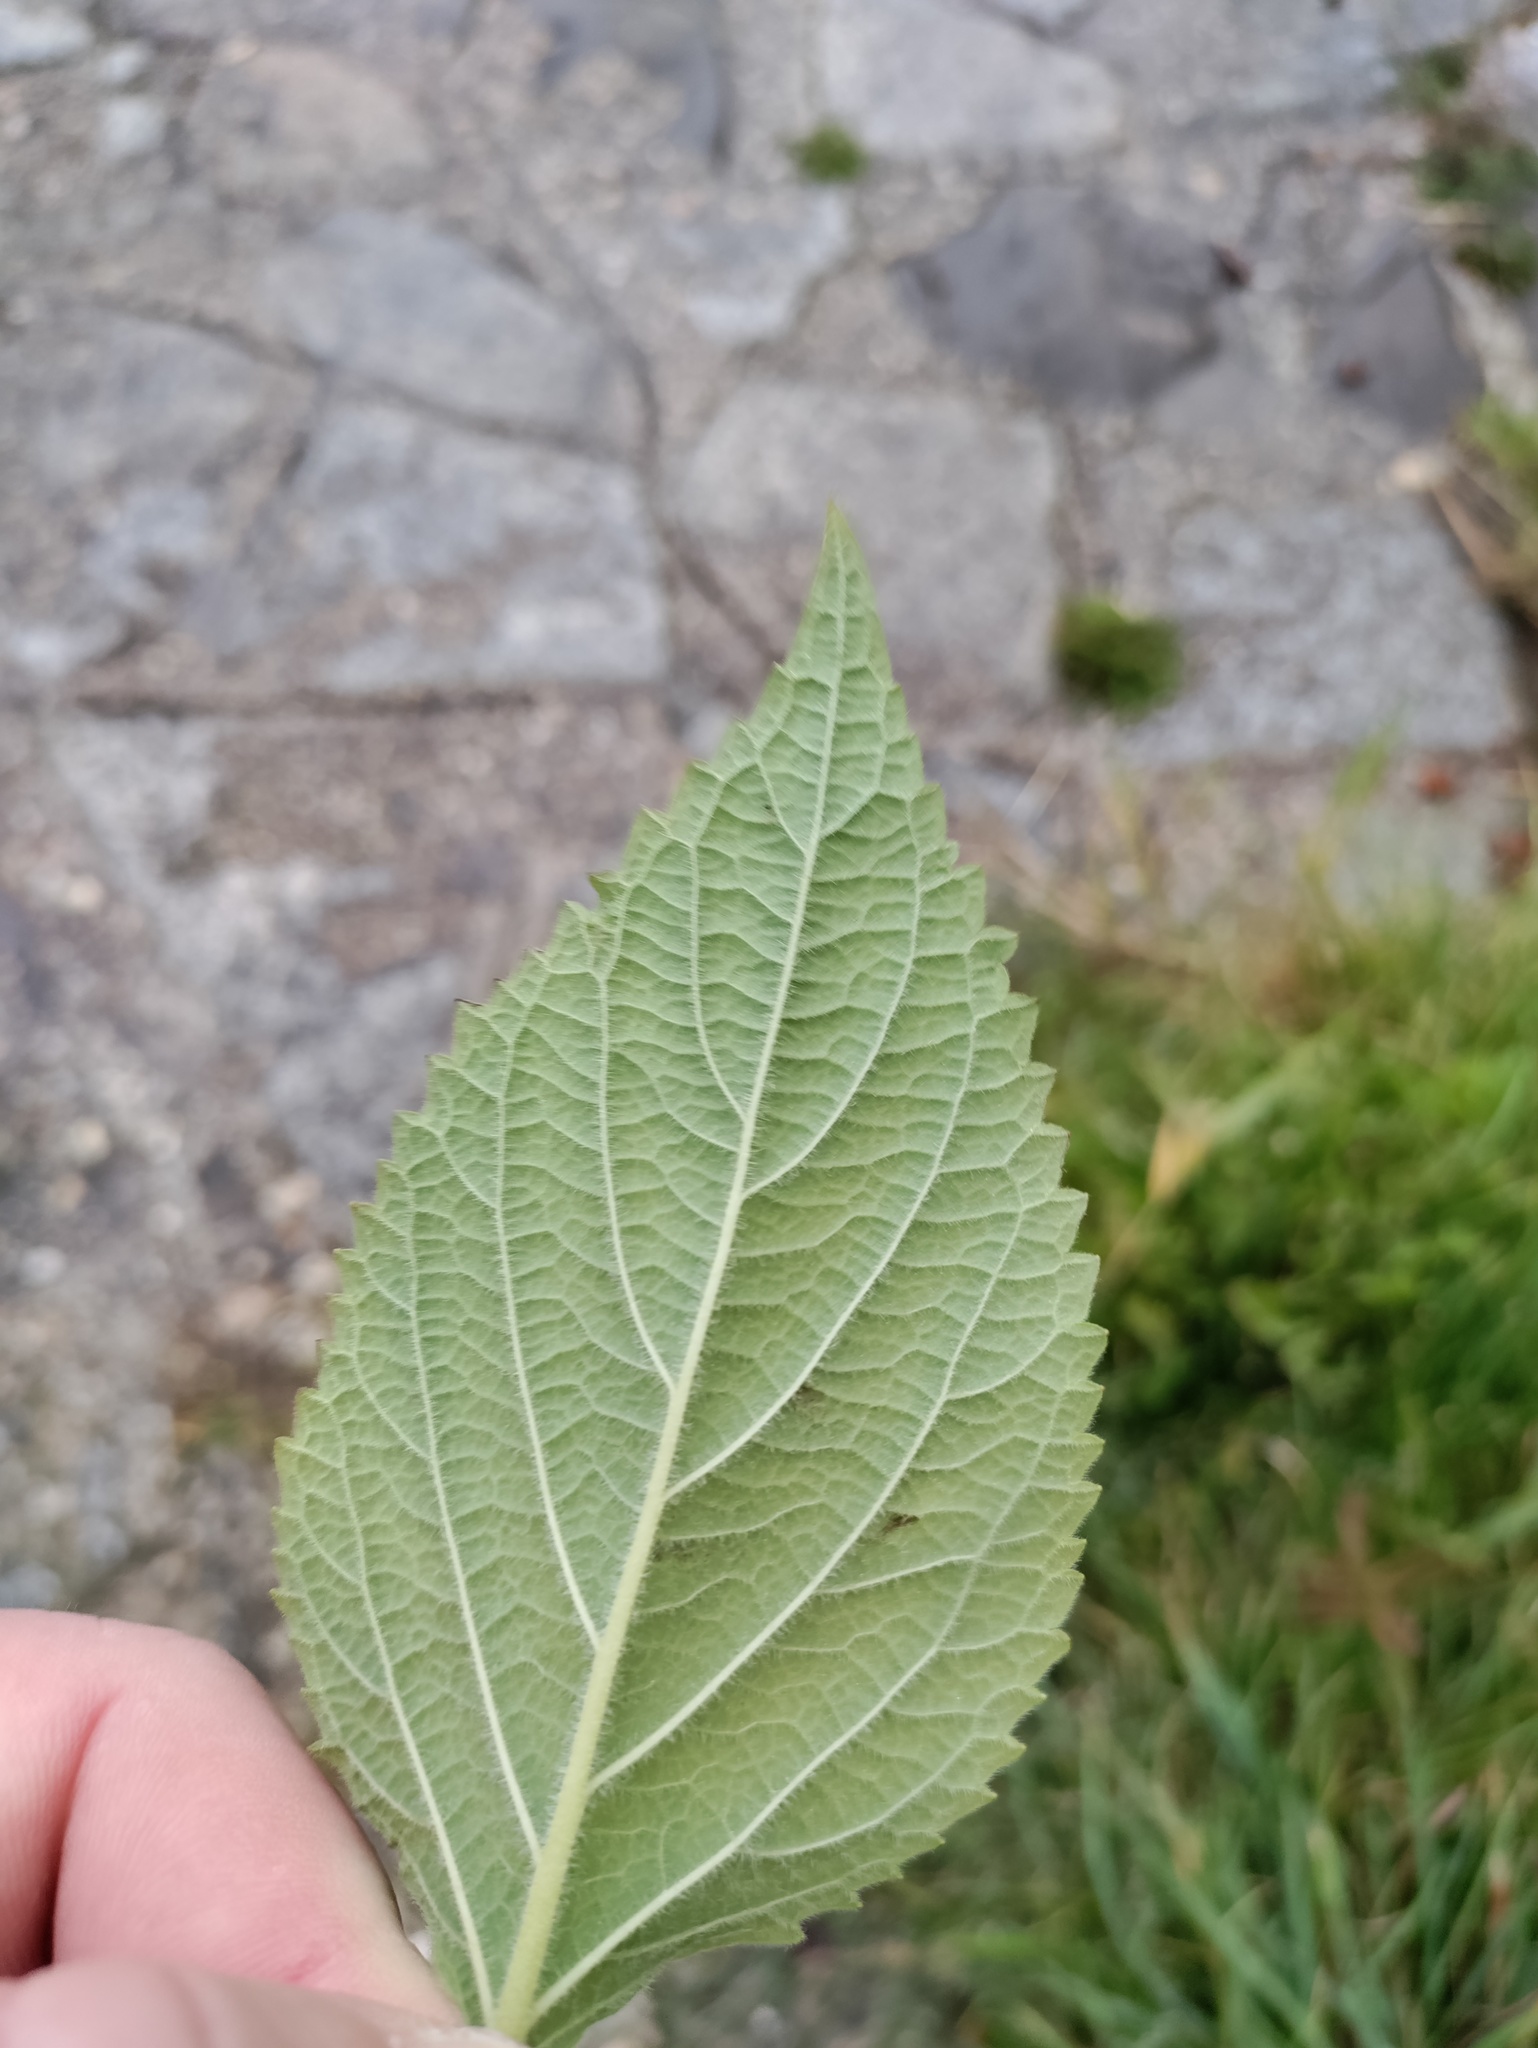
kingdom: Plantae
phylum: Tracheophyta
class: Magnoliopsida
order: Lamiales
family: Lamiaceae
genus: Salvia
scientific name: Salvia hispanica
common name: Chia
